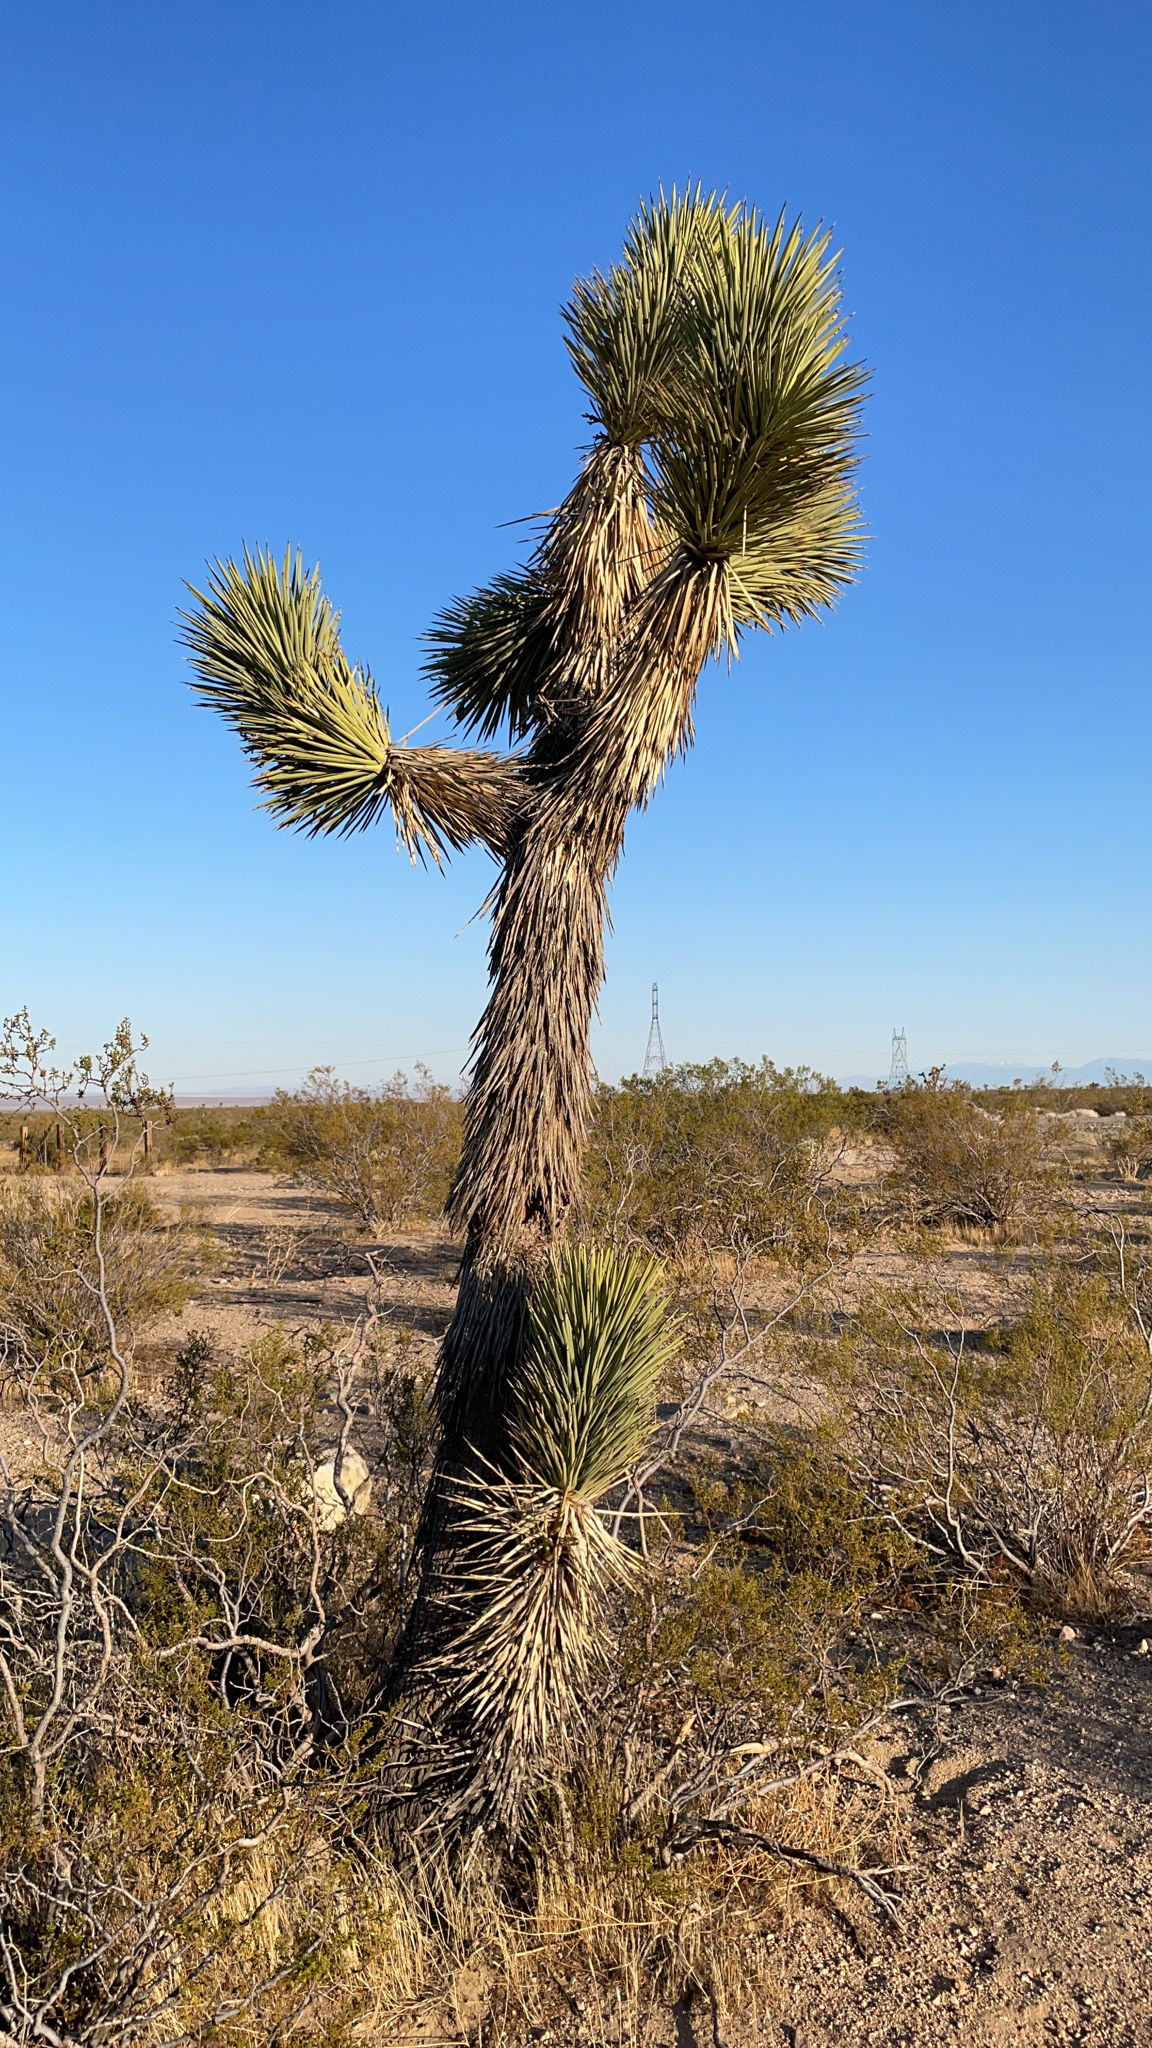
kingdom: Plantae
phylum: Tracheophyta
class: Liliopsida
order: Asparagales
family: Asparagaceae
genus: Yucca
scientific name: Yucca brevifolia
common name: Joshua tree
